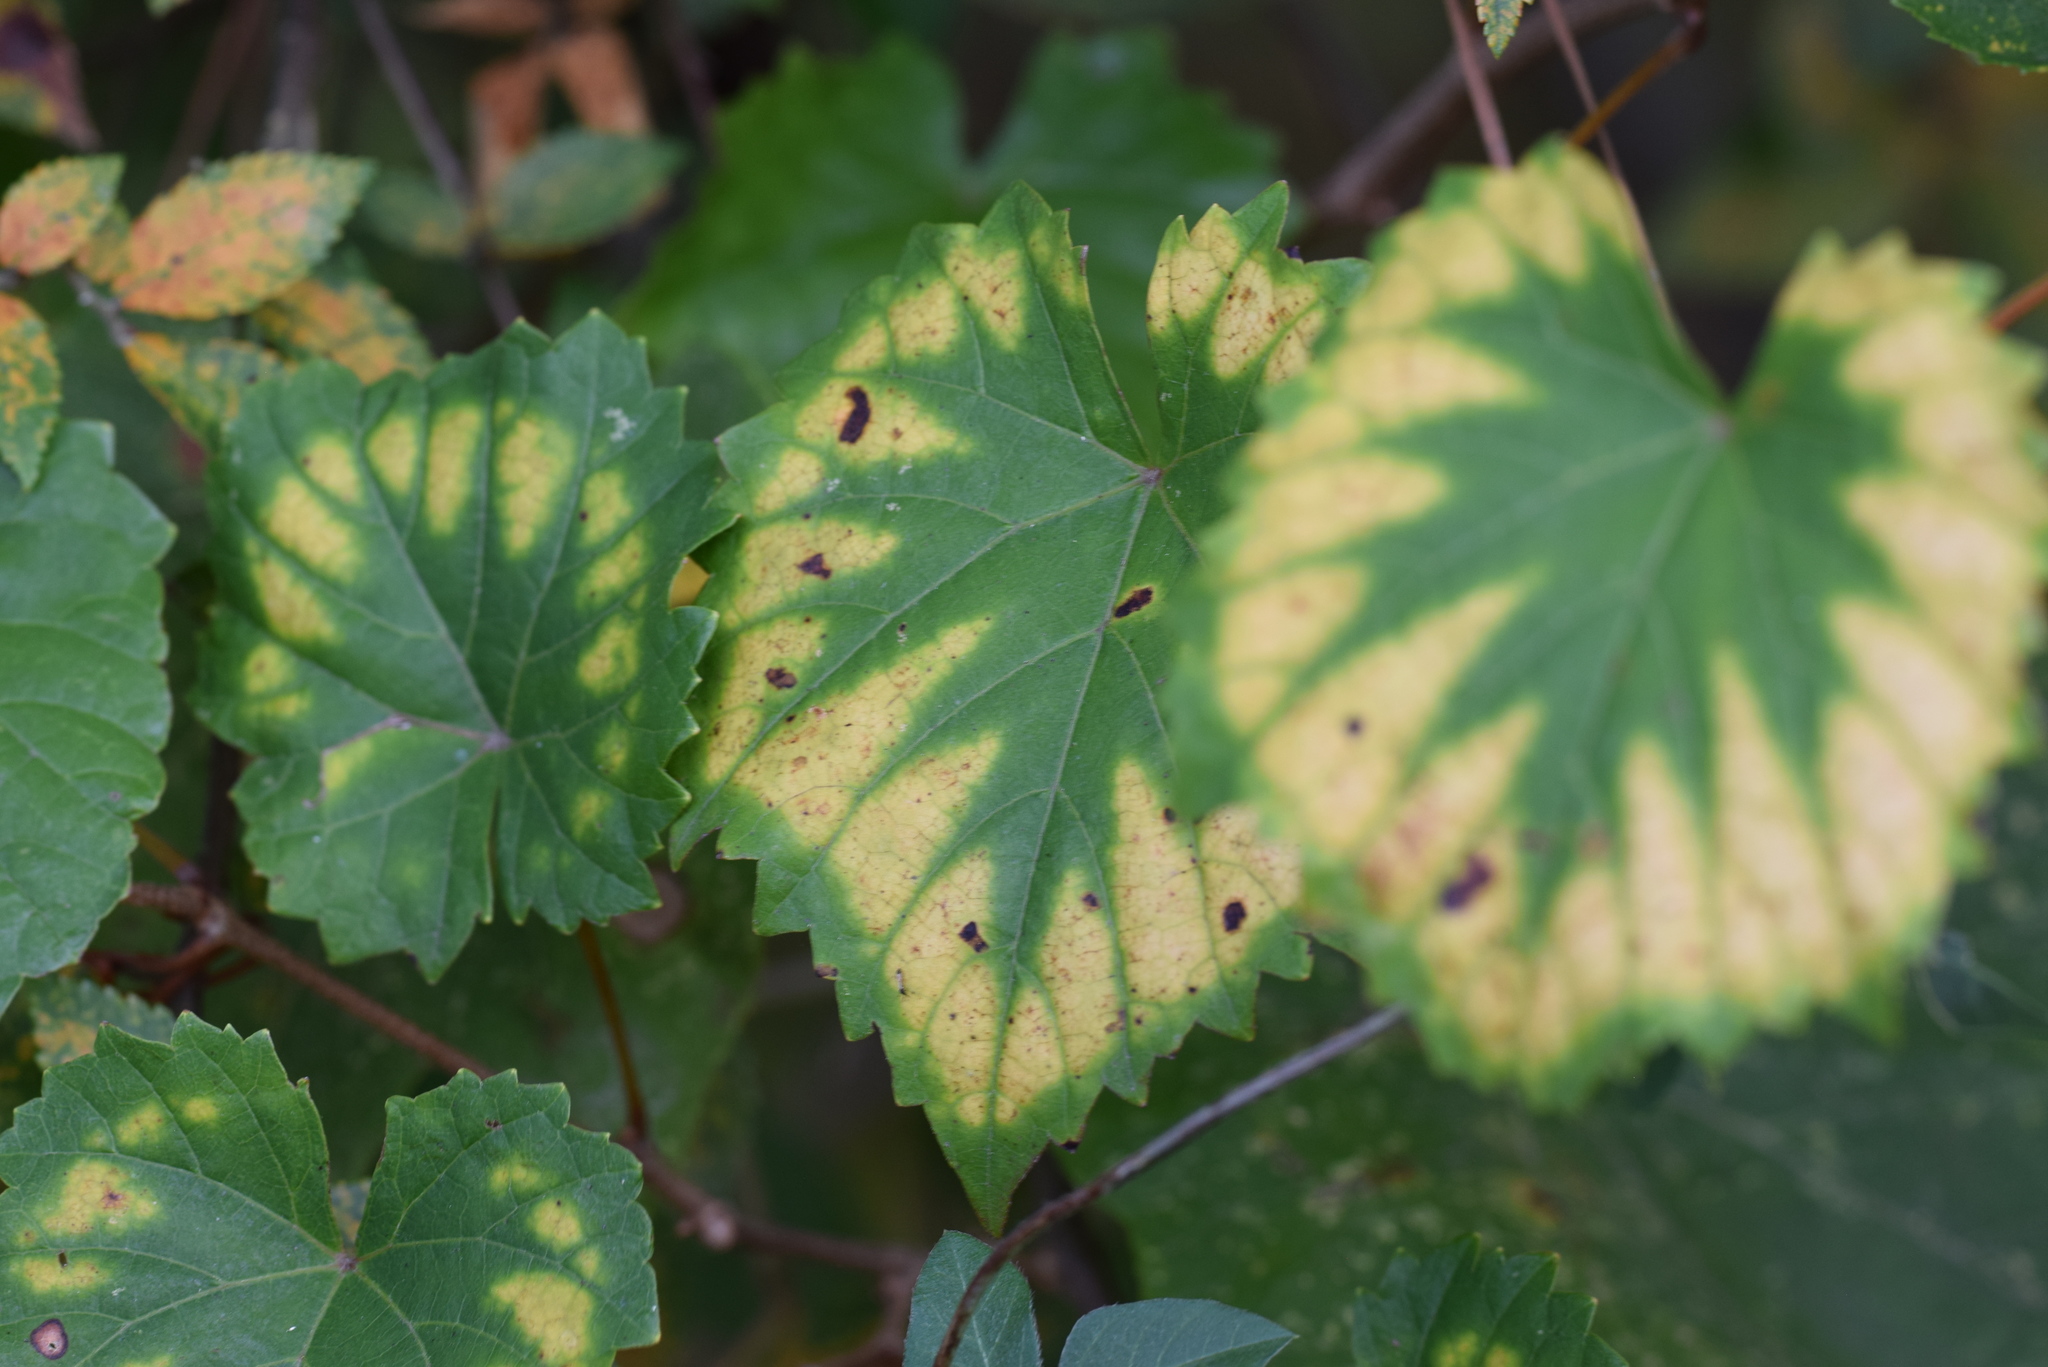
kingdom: Plantae
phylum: Tracheophyta
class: Magnoliopsida
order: Vitales
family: Vitaceae
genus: Vitis
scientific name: Vitis rotundifolia
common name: Muscadine grape
